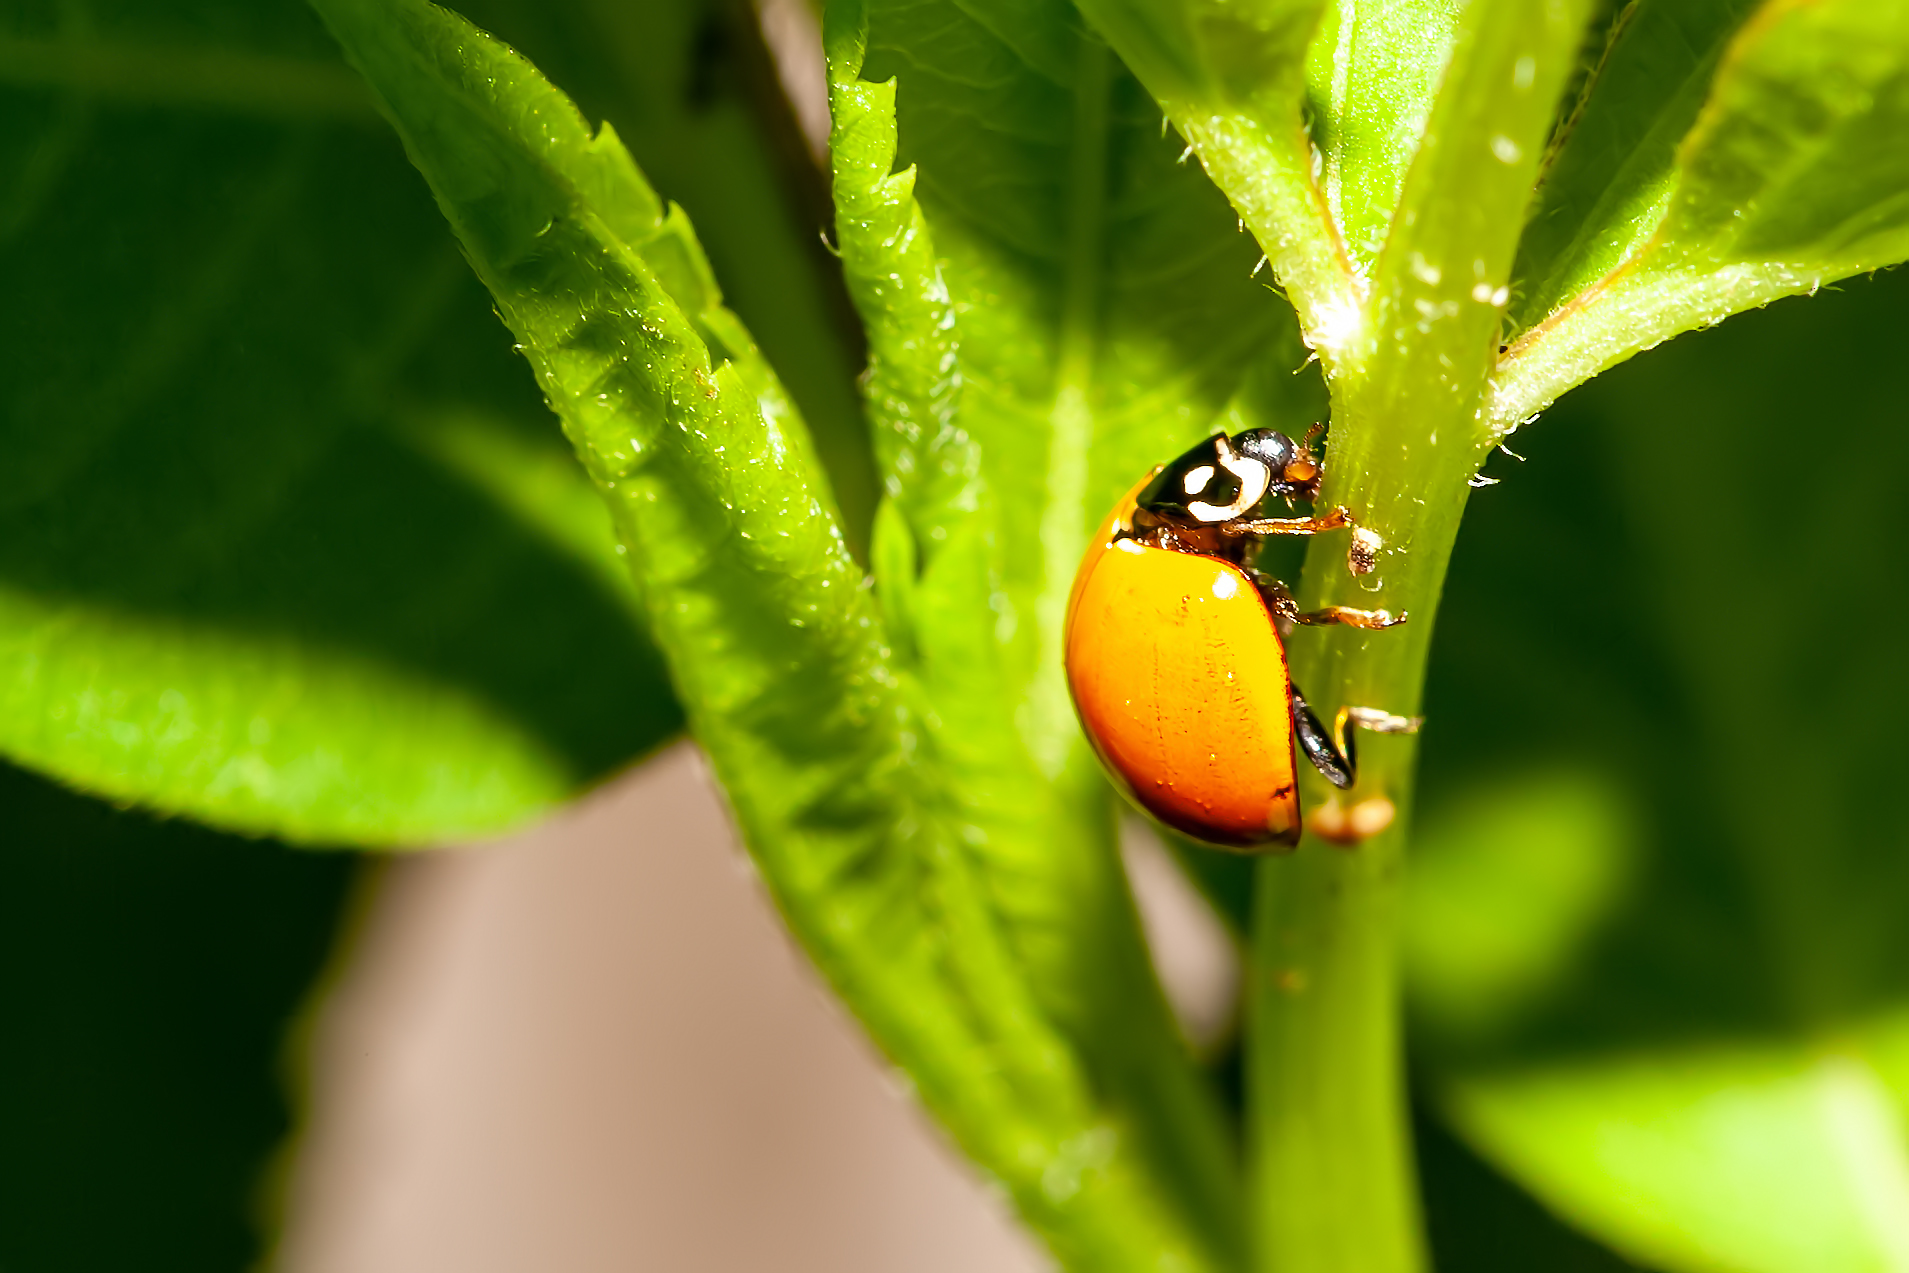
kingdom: Animalia
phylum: Arthropoda
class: Insecta
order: Coleoptera
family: Coccinellidae
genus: Cycloneda
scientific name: Cycloneda sanguinea
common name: Ladybird beetle
